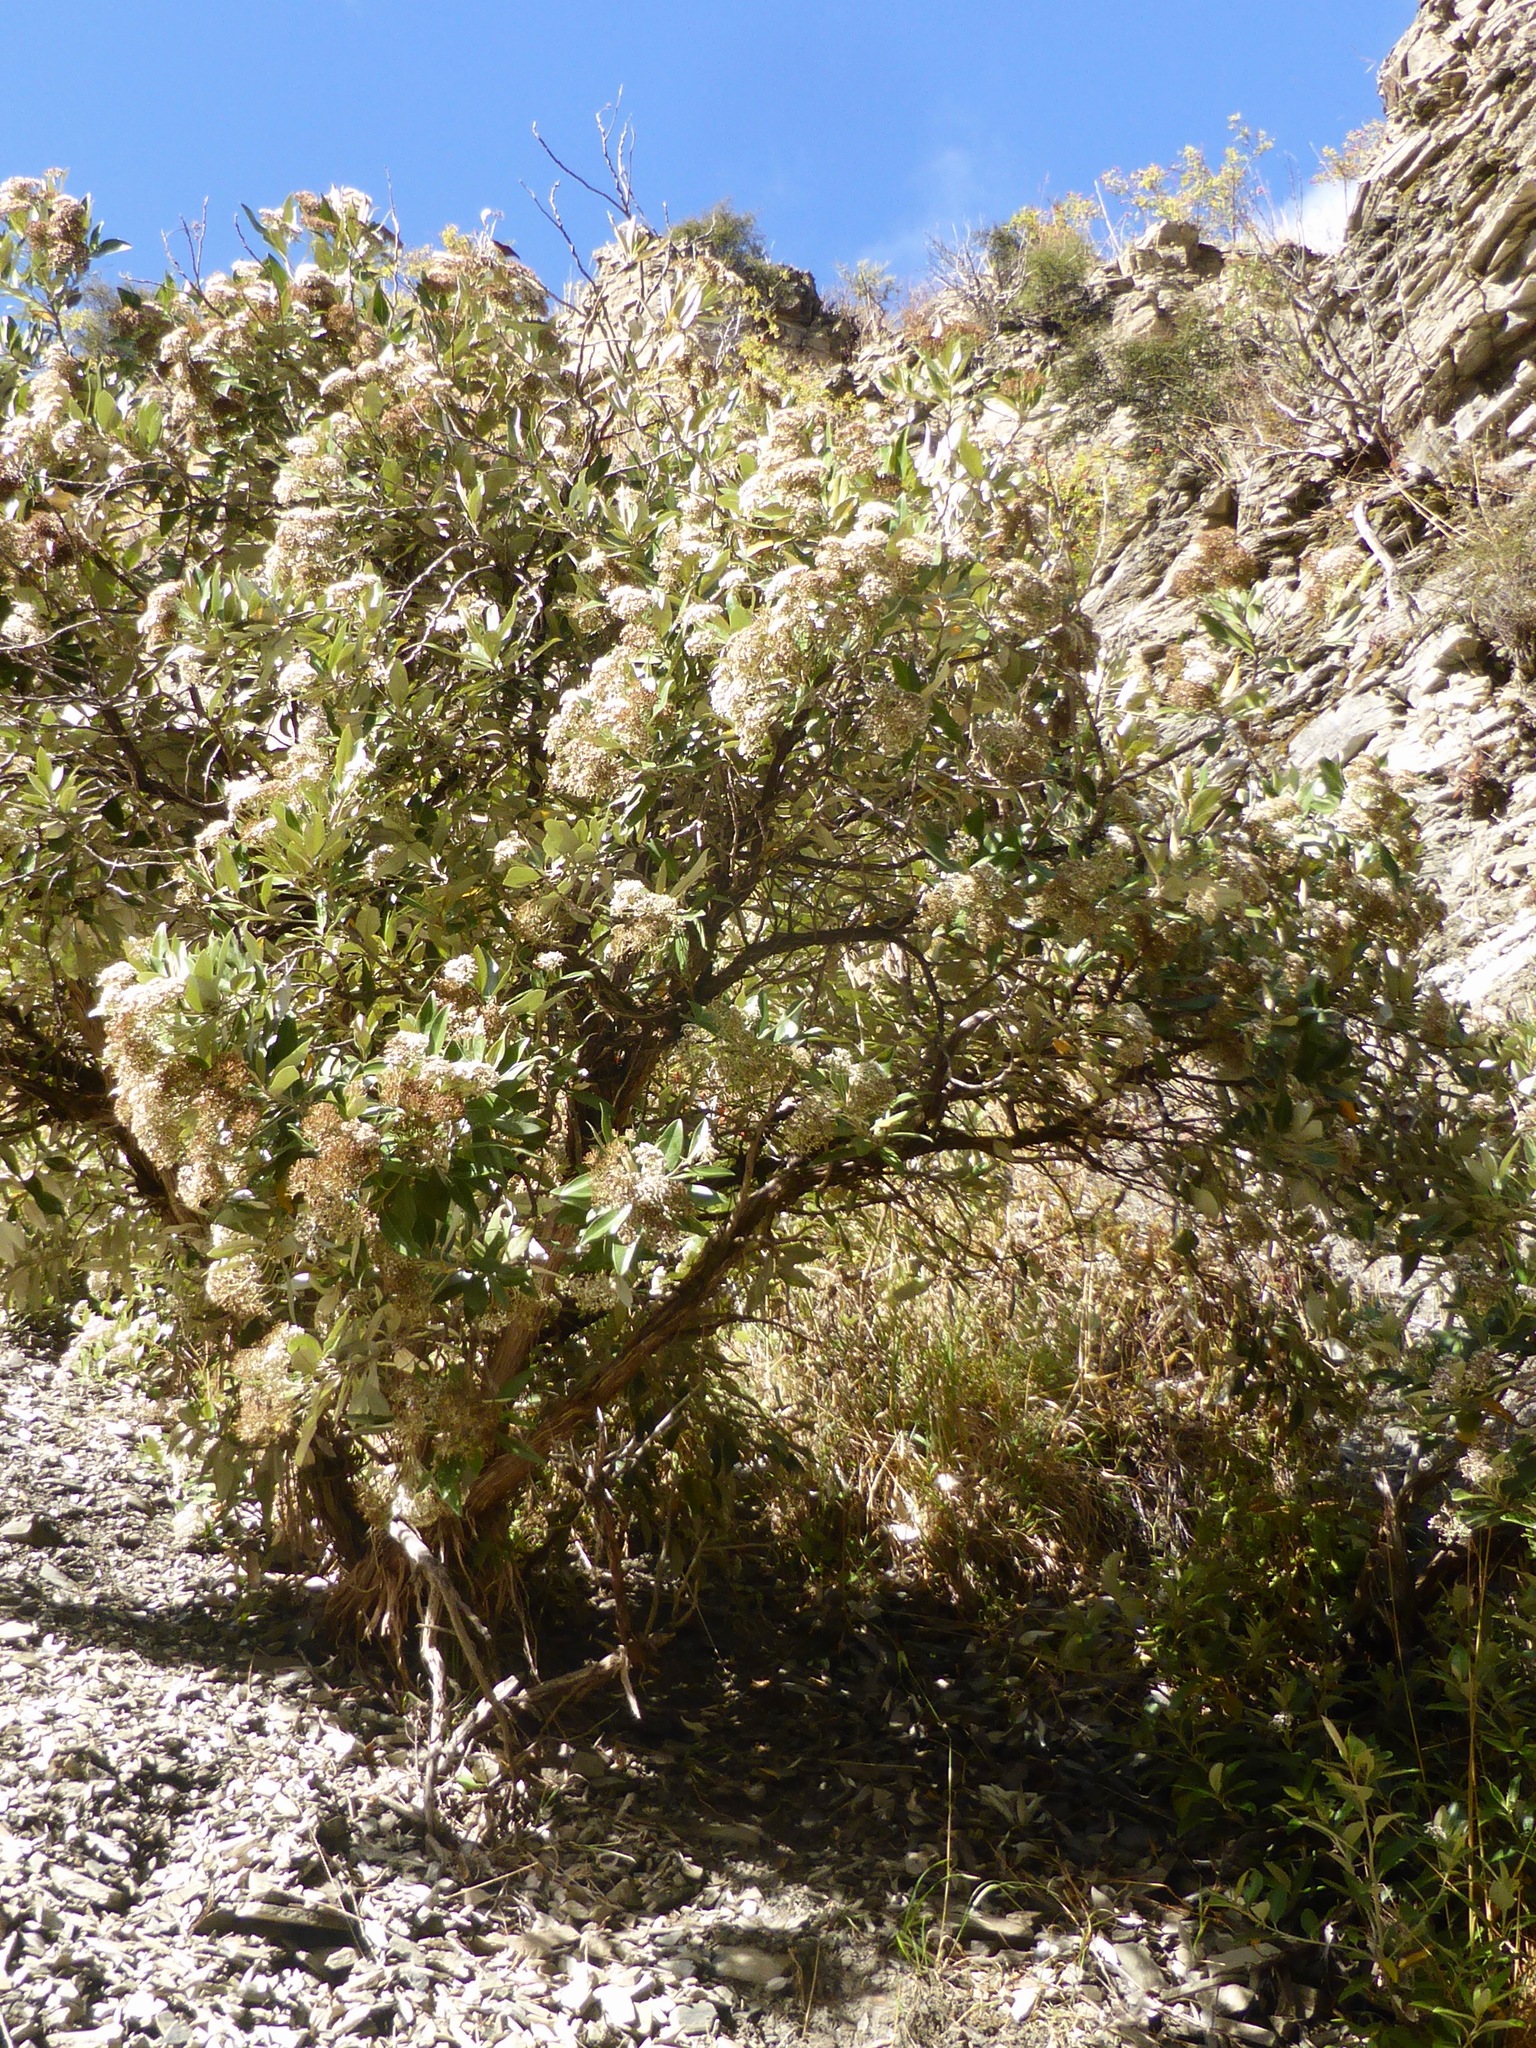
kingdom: Plantae
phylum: Tracheophyta
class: Magnoliopsida
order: Asterales
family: Asteraceae
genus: Olearia
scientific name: Olearia avicenniifolia
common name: Mangrove-leaf daisybush
